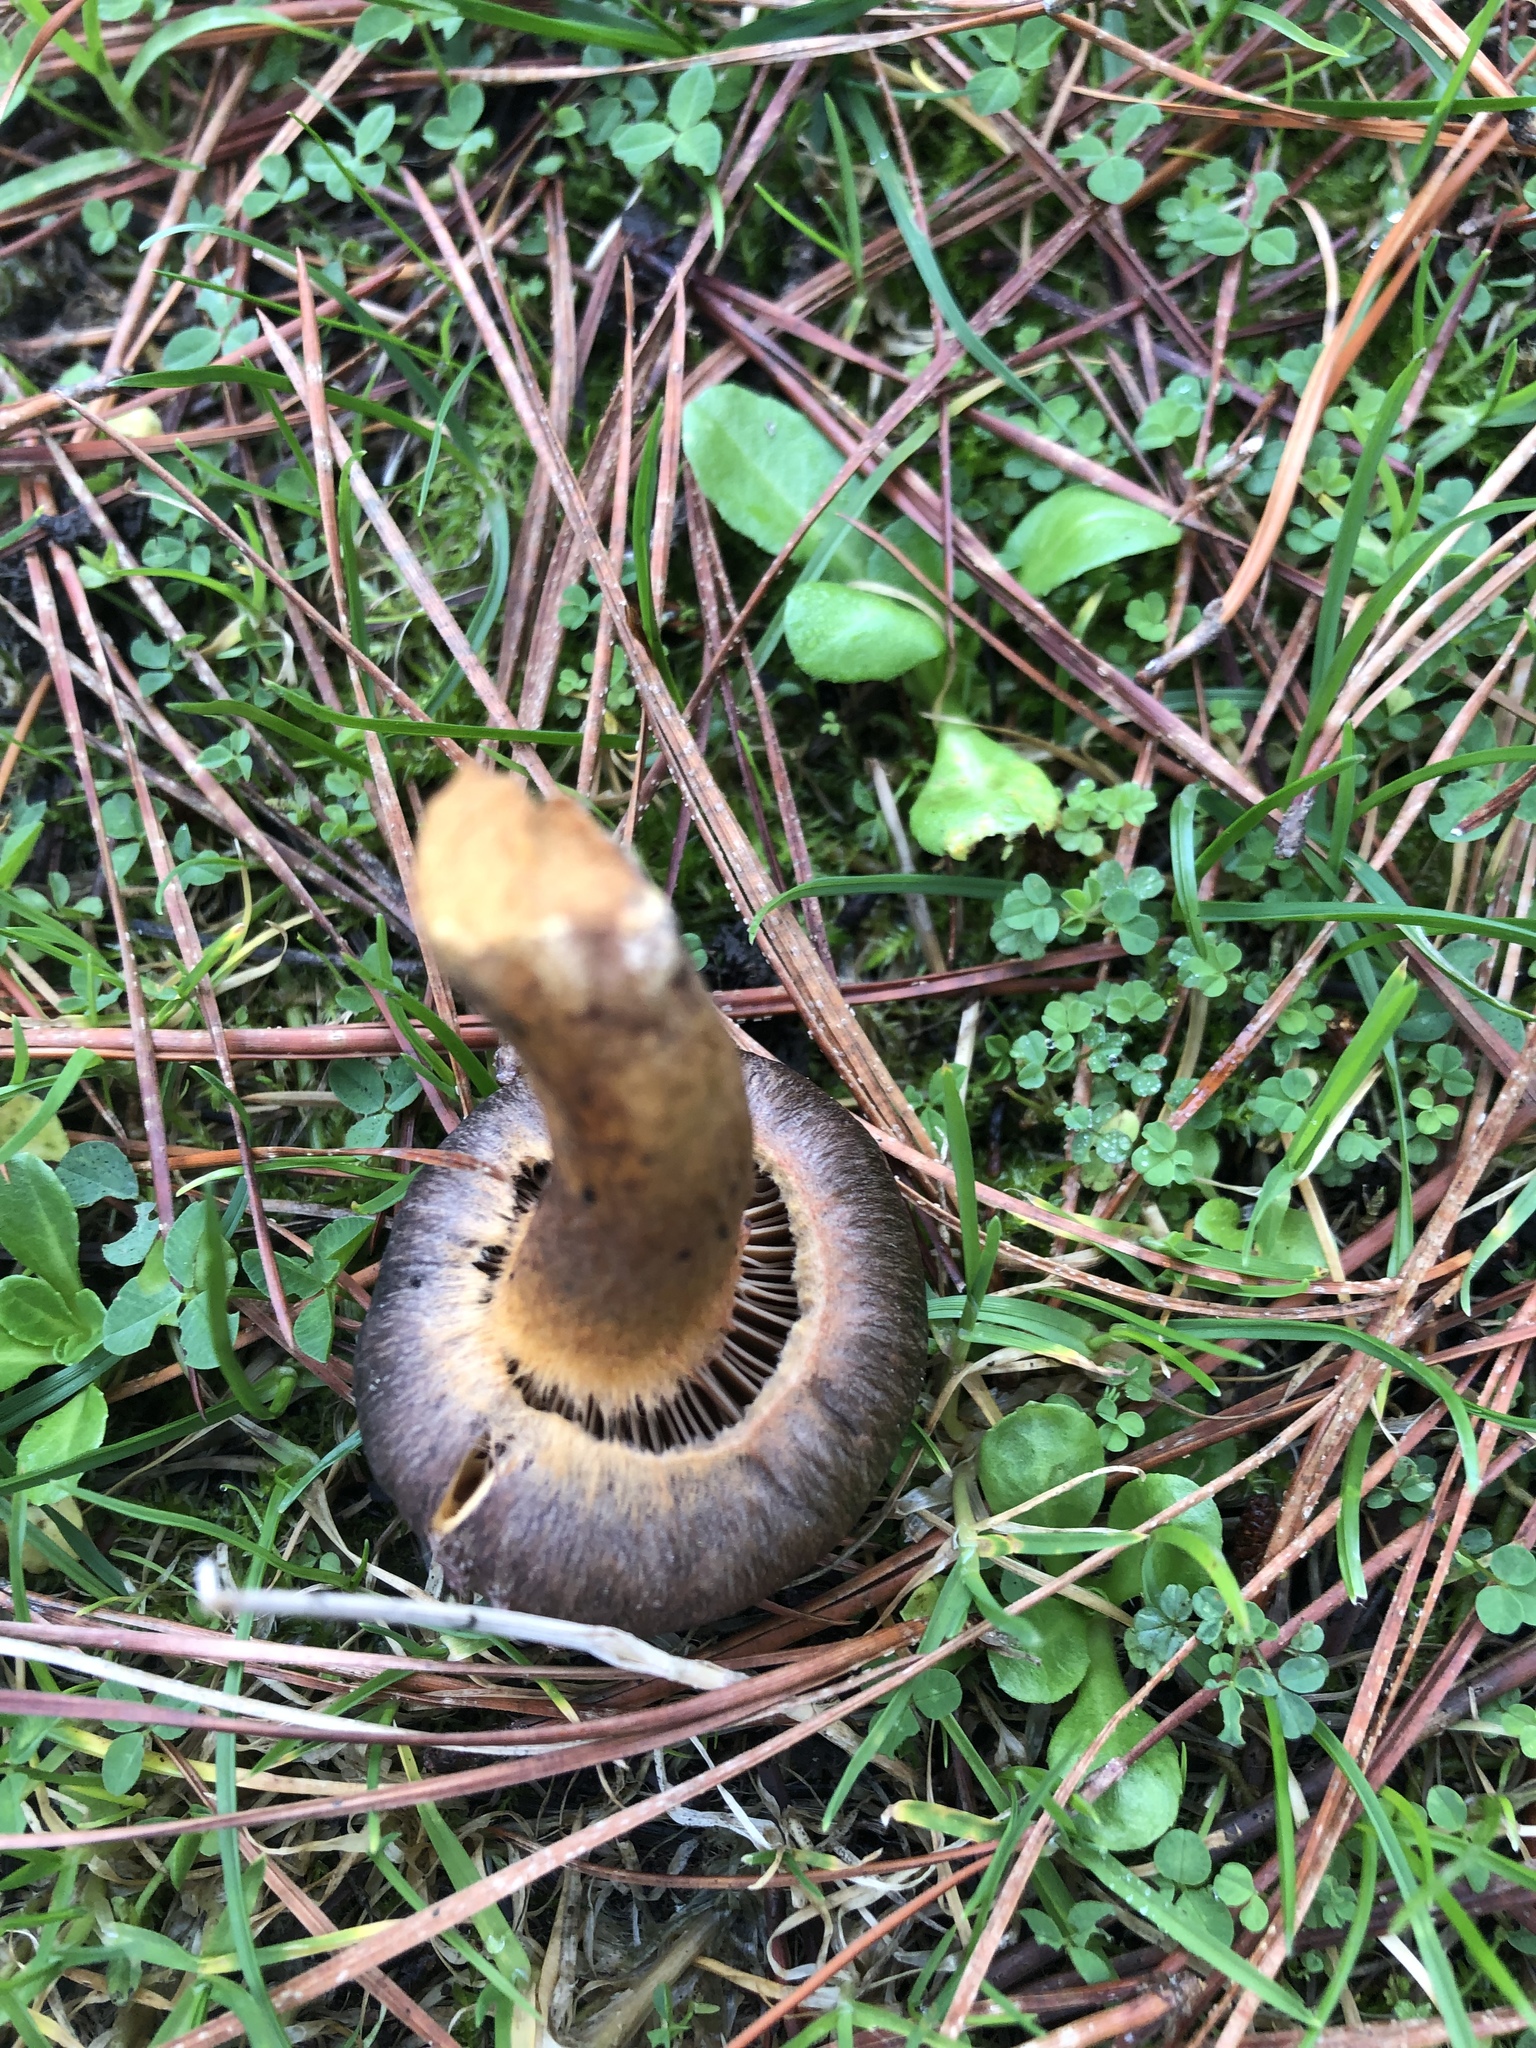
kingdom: Fungi
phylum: Basidiomycota
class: Agaricomycetes
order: Boletales
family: Gomphidiaceae
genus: Chroogomphus
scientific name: Chroogomphus vinicolor
